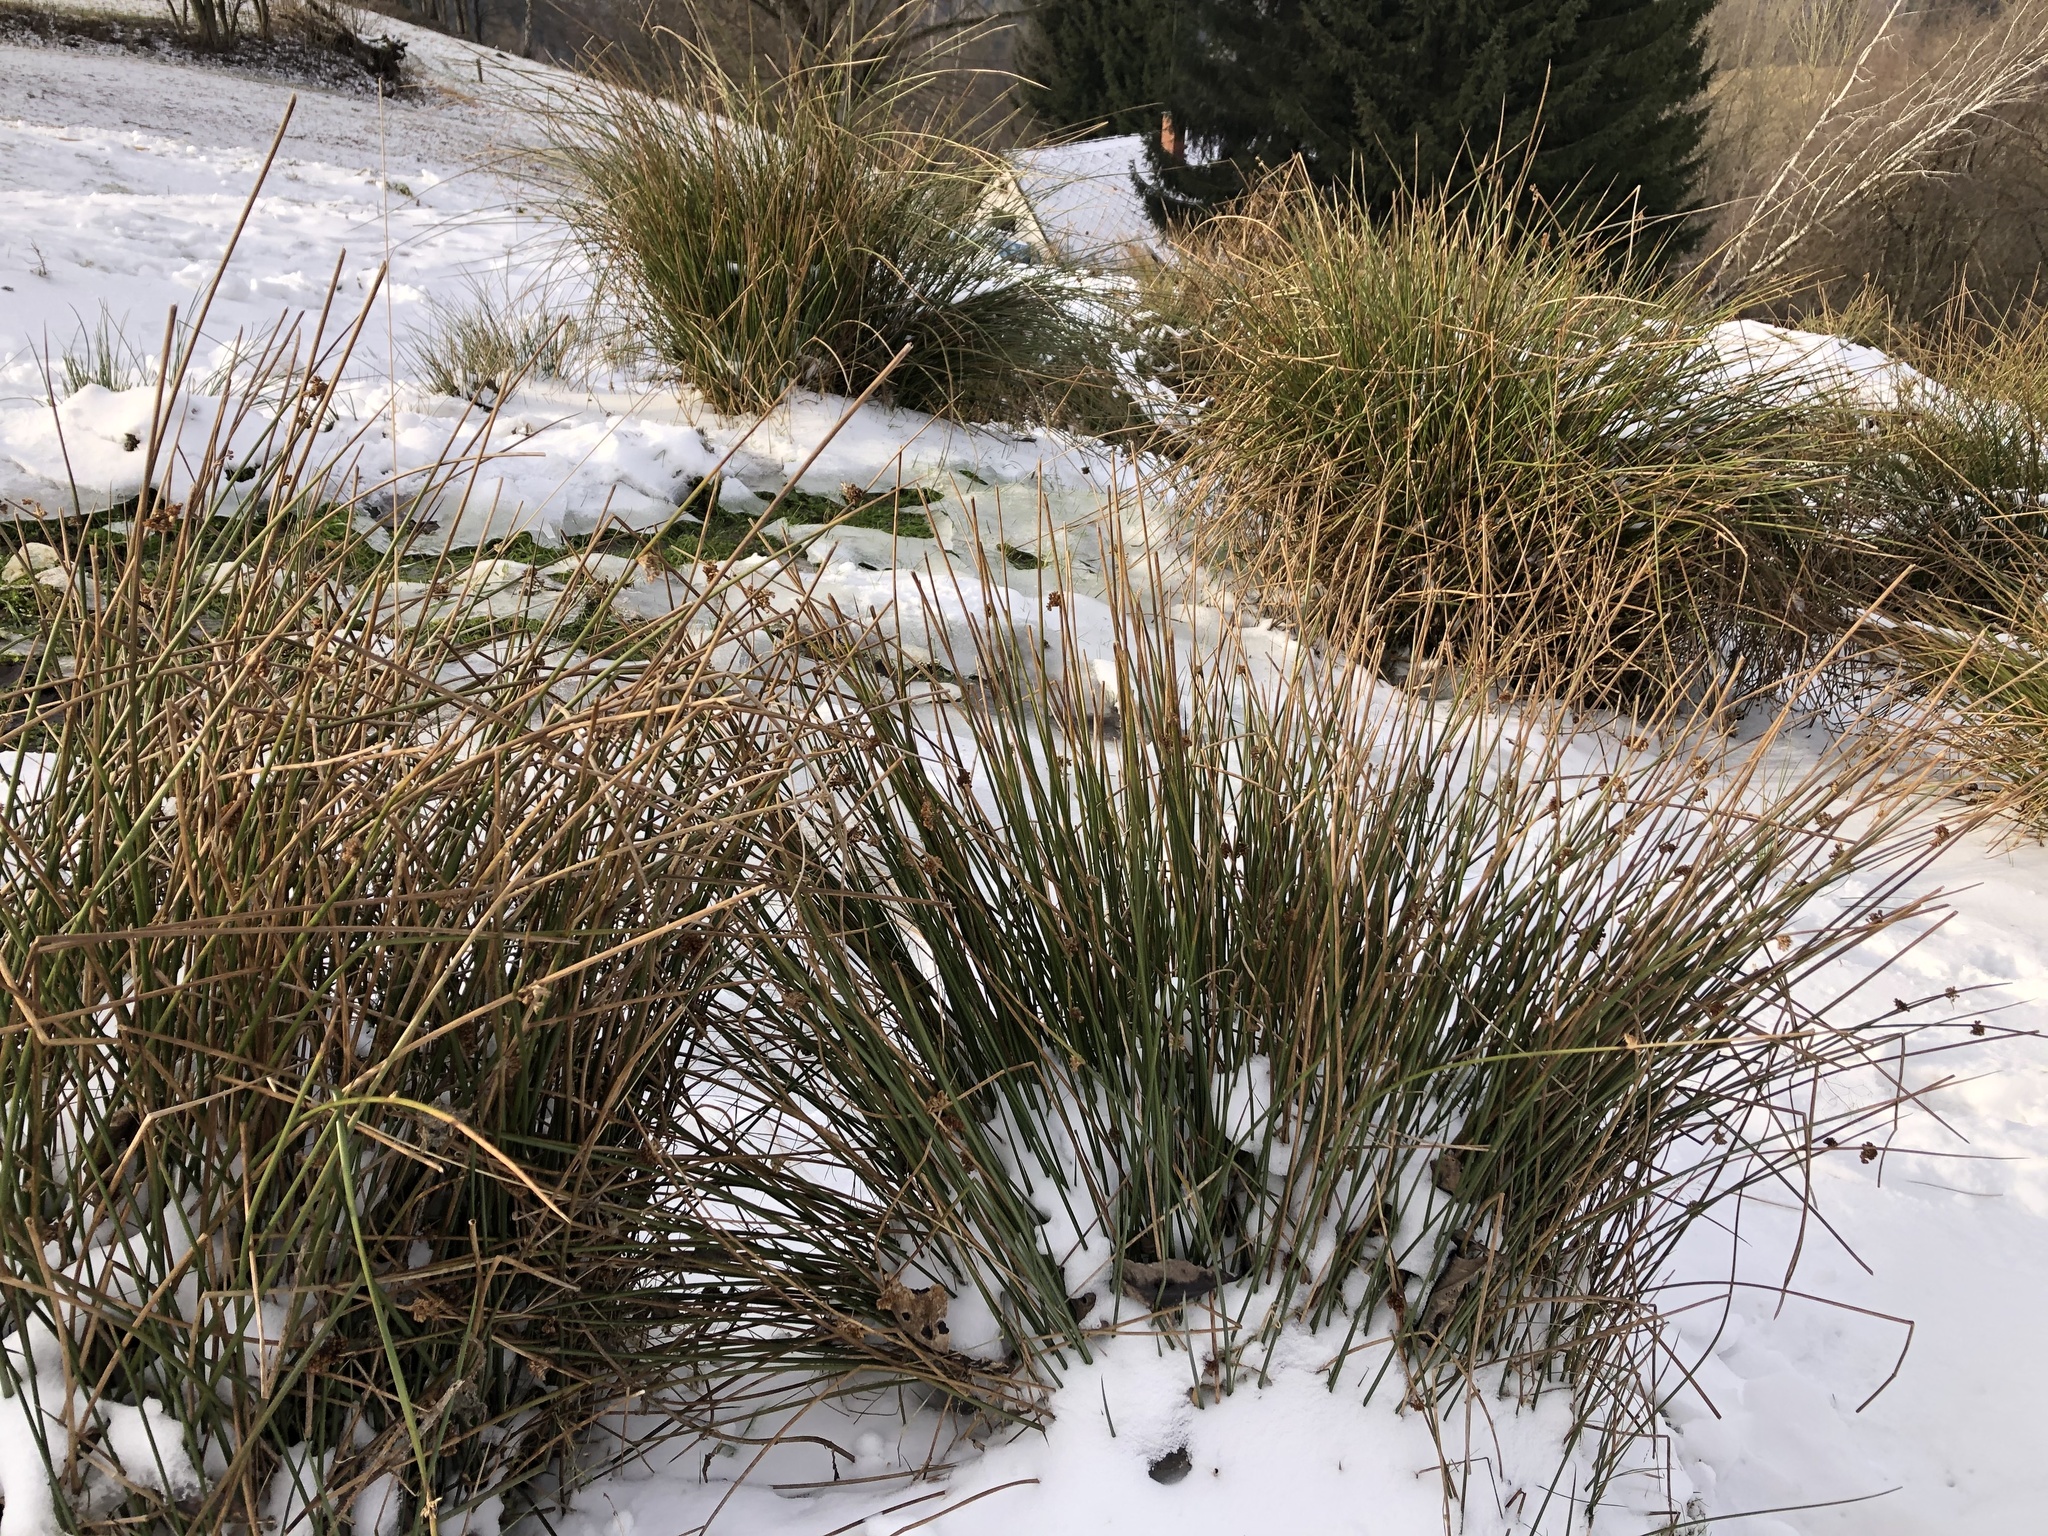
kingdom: Plantae
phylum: Tracheophyta
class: Liliopsida
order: Poales
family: Juncaceae
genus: Juncus
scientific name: Juncus effusus
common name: Soft rush
